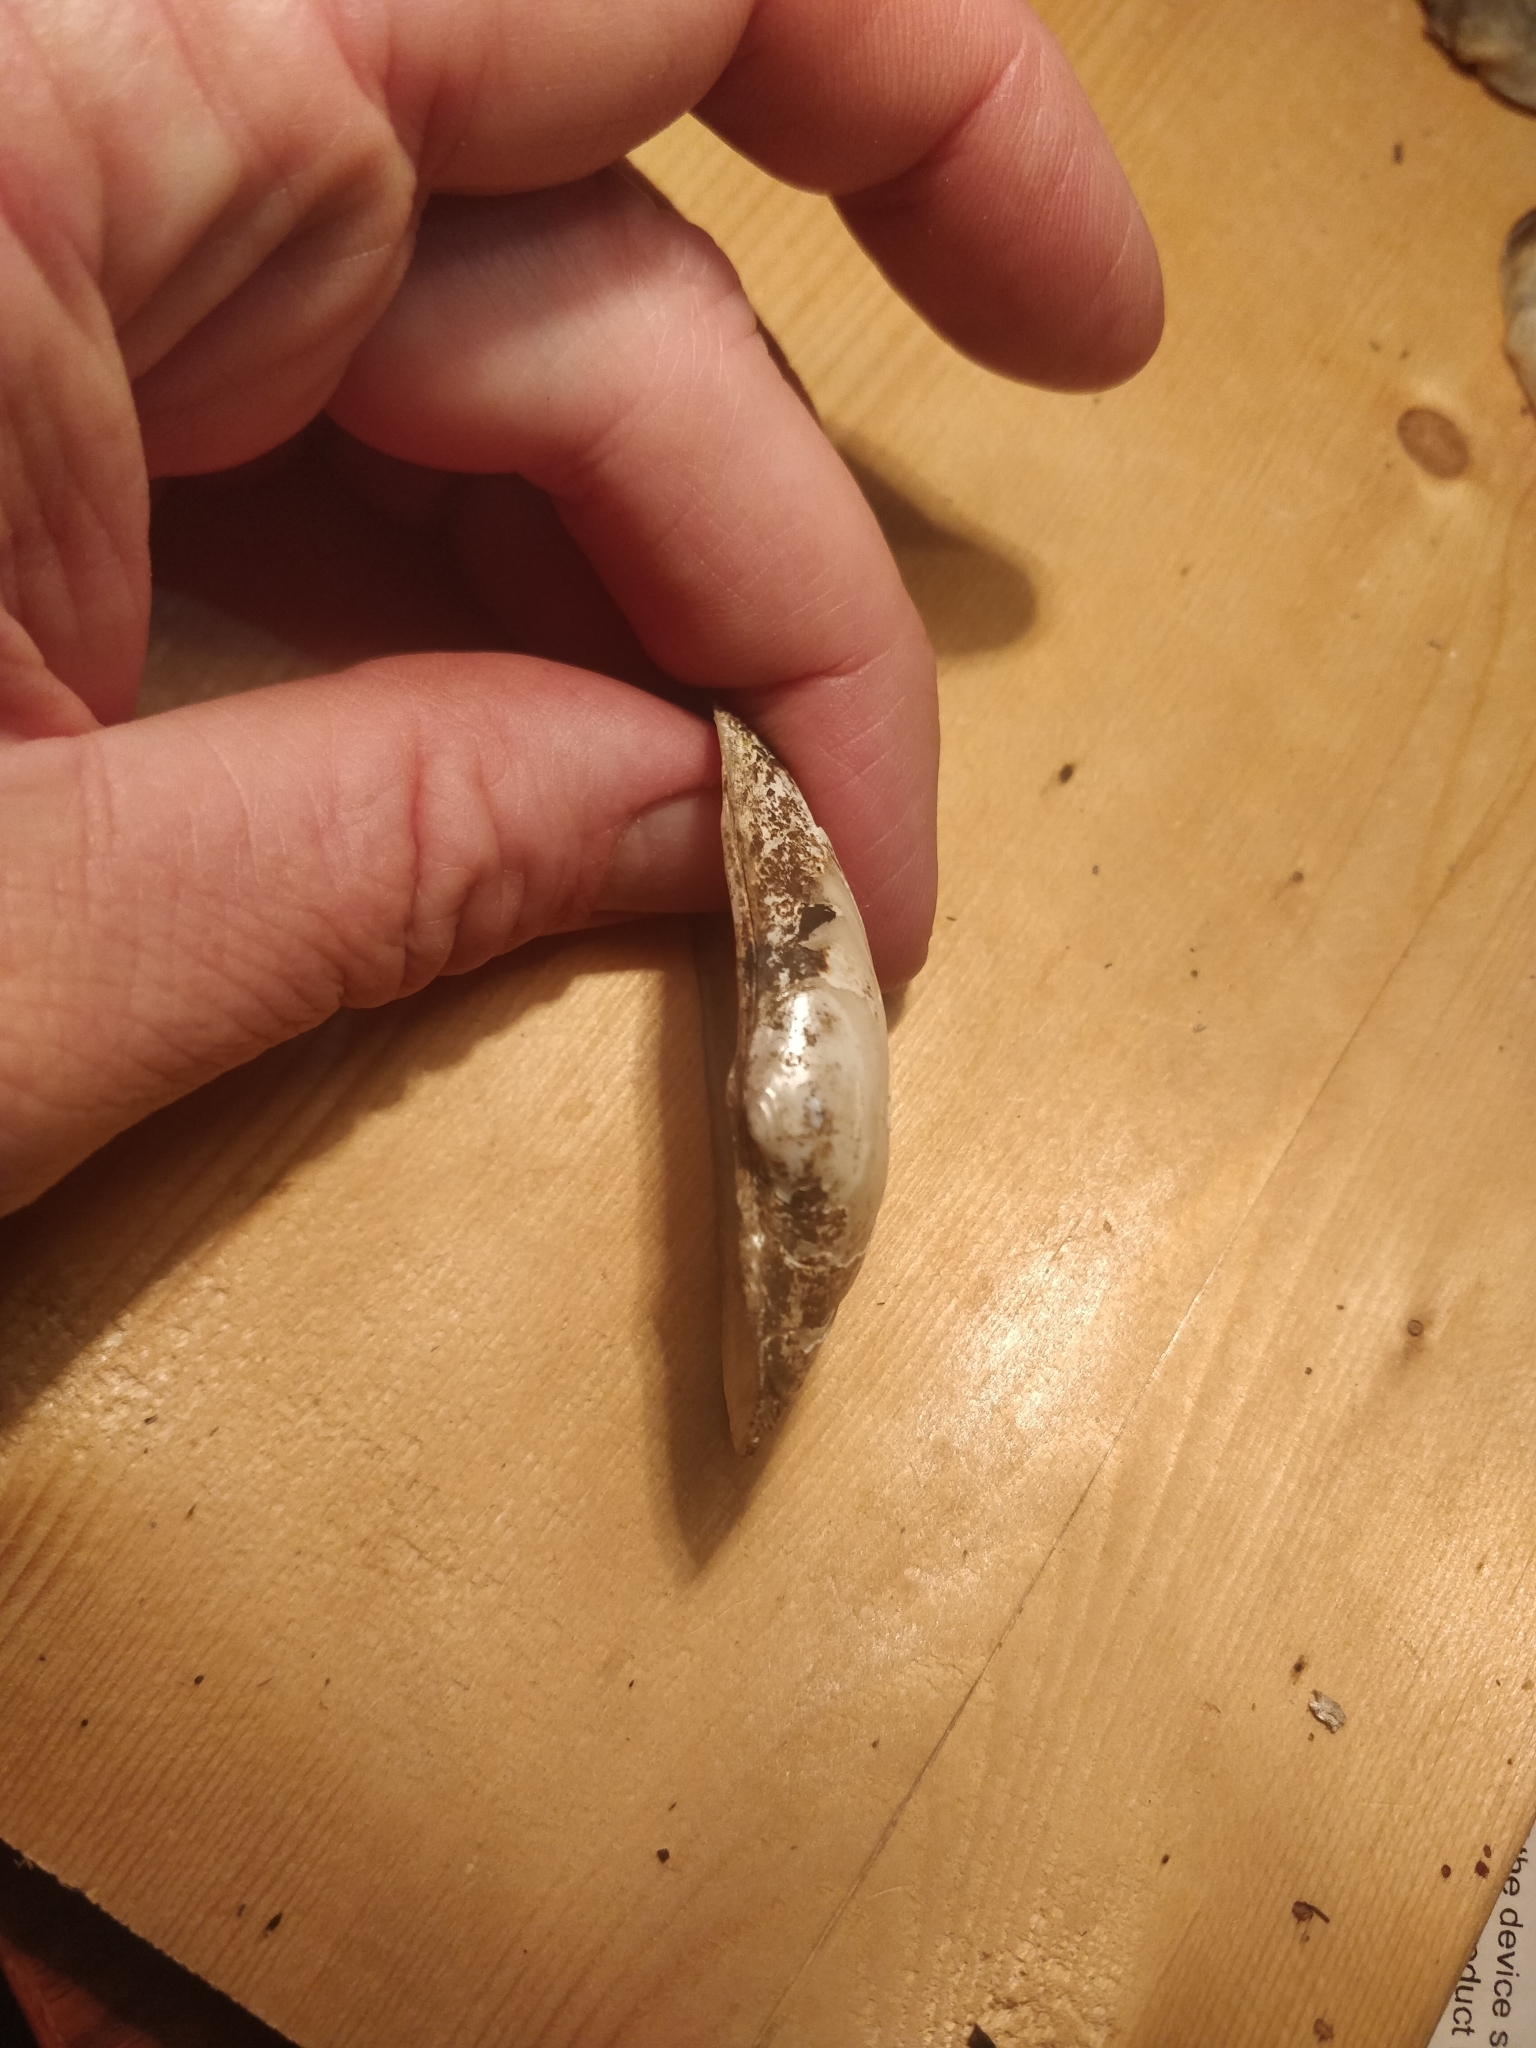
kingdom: Animalia
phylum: Mollusca
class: Bivalvia
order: Unionida
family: Unionidae
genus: Strophitus
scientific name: Strophitus undulatus
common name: Creeper
